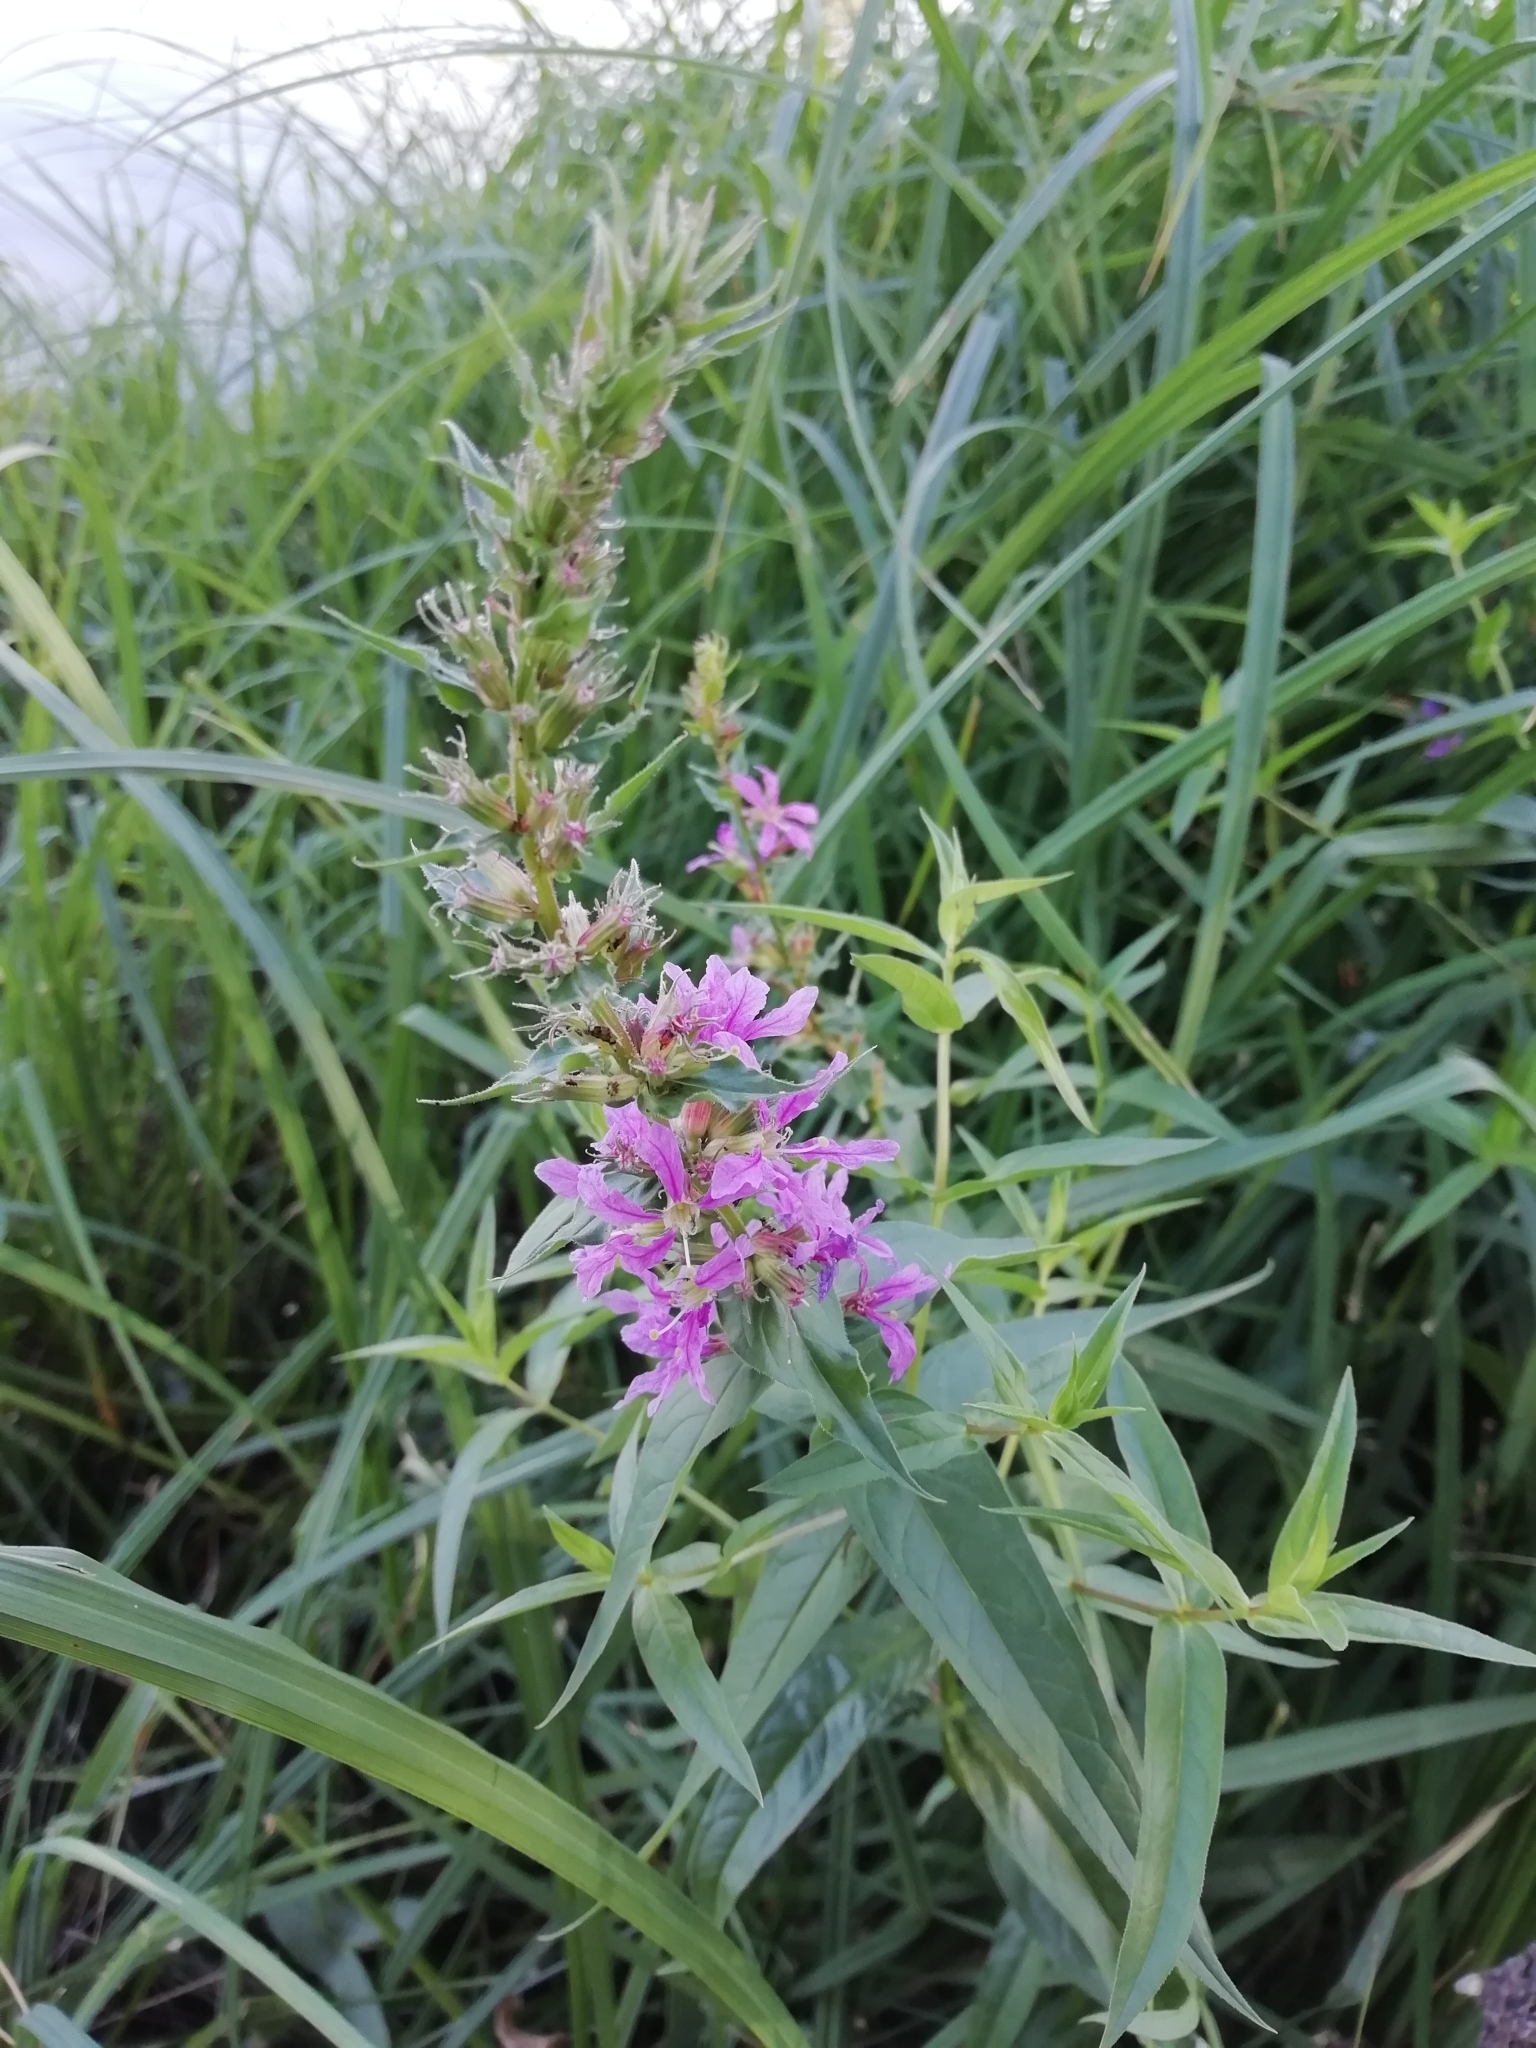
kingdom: Plantae
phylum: Tracheophyta
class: Magnoliopsida
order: Myrtales
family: Lythraceae
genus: Lythrum
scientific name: Lythrum salicaria
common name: Purple loosestrife
